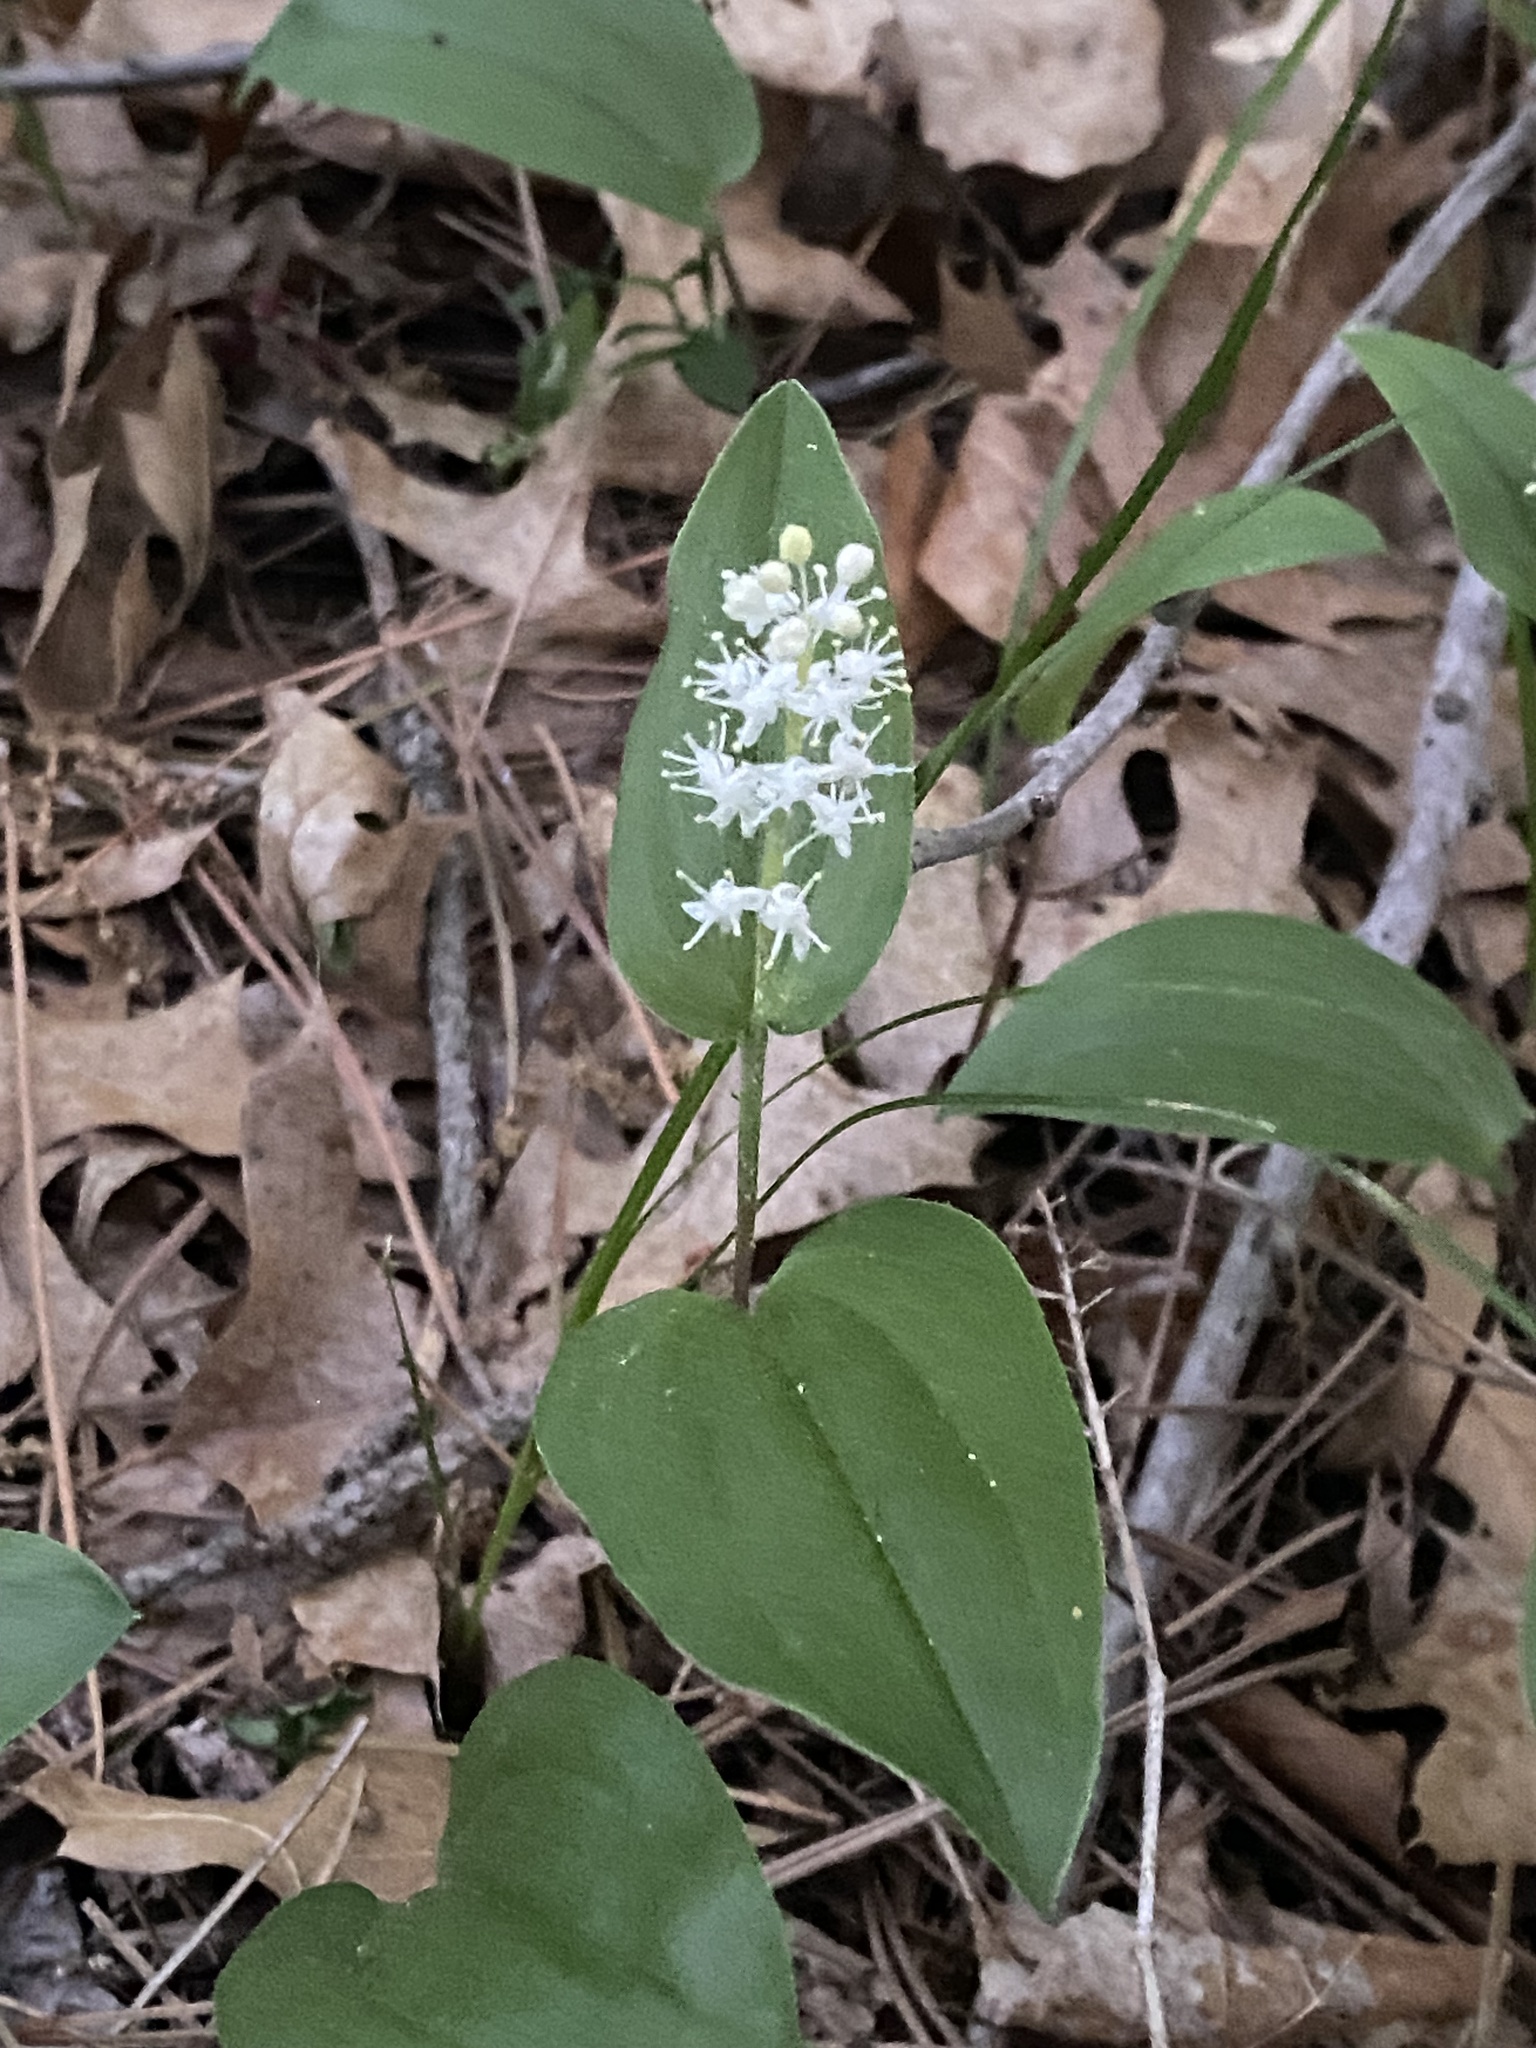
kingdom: Plantae
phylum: Tracheophyta
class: Liliopsida
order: Asparagales
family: Asparagaceae
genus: Maianthemum
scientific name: Maianthemum canadense
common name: False lily-of-the-valley
